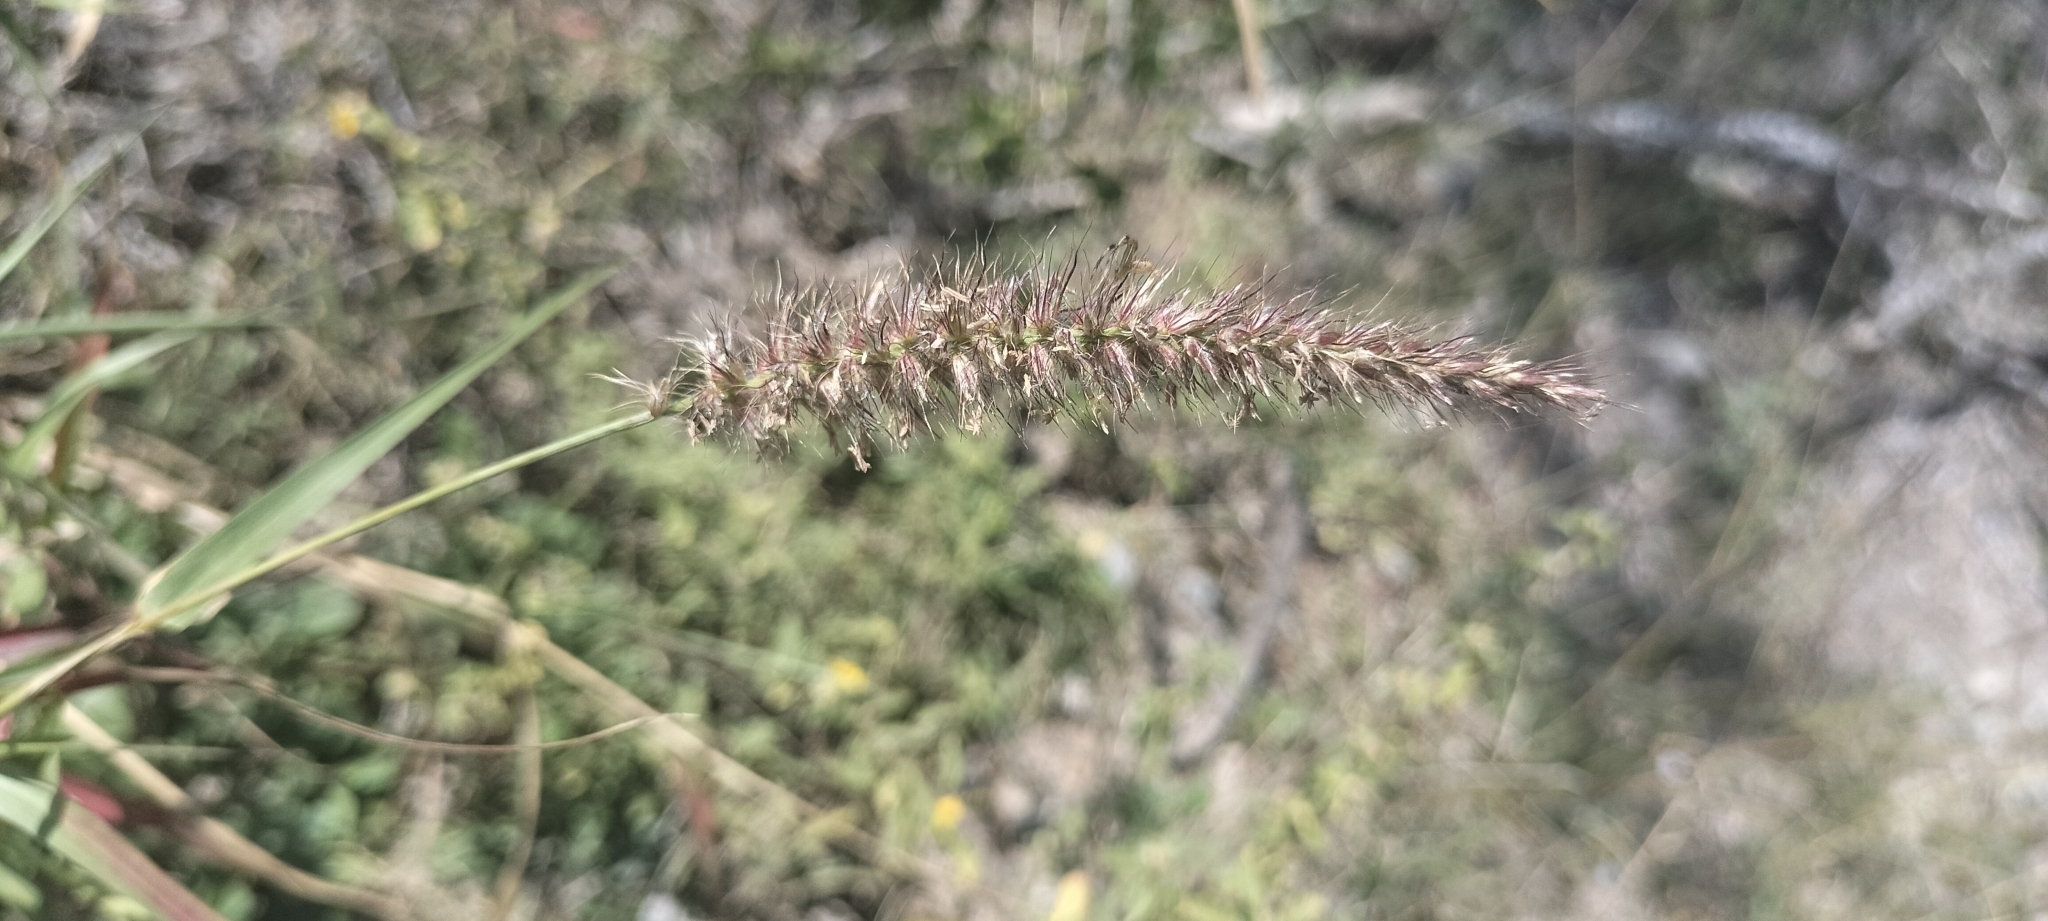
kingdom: Plantae
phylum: Tracheophyta
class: Liliopsida
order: Poales
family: Poaceae
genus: Cenchrus
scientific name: Cenchrus ciliaris
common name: Buffelgrass
